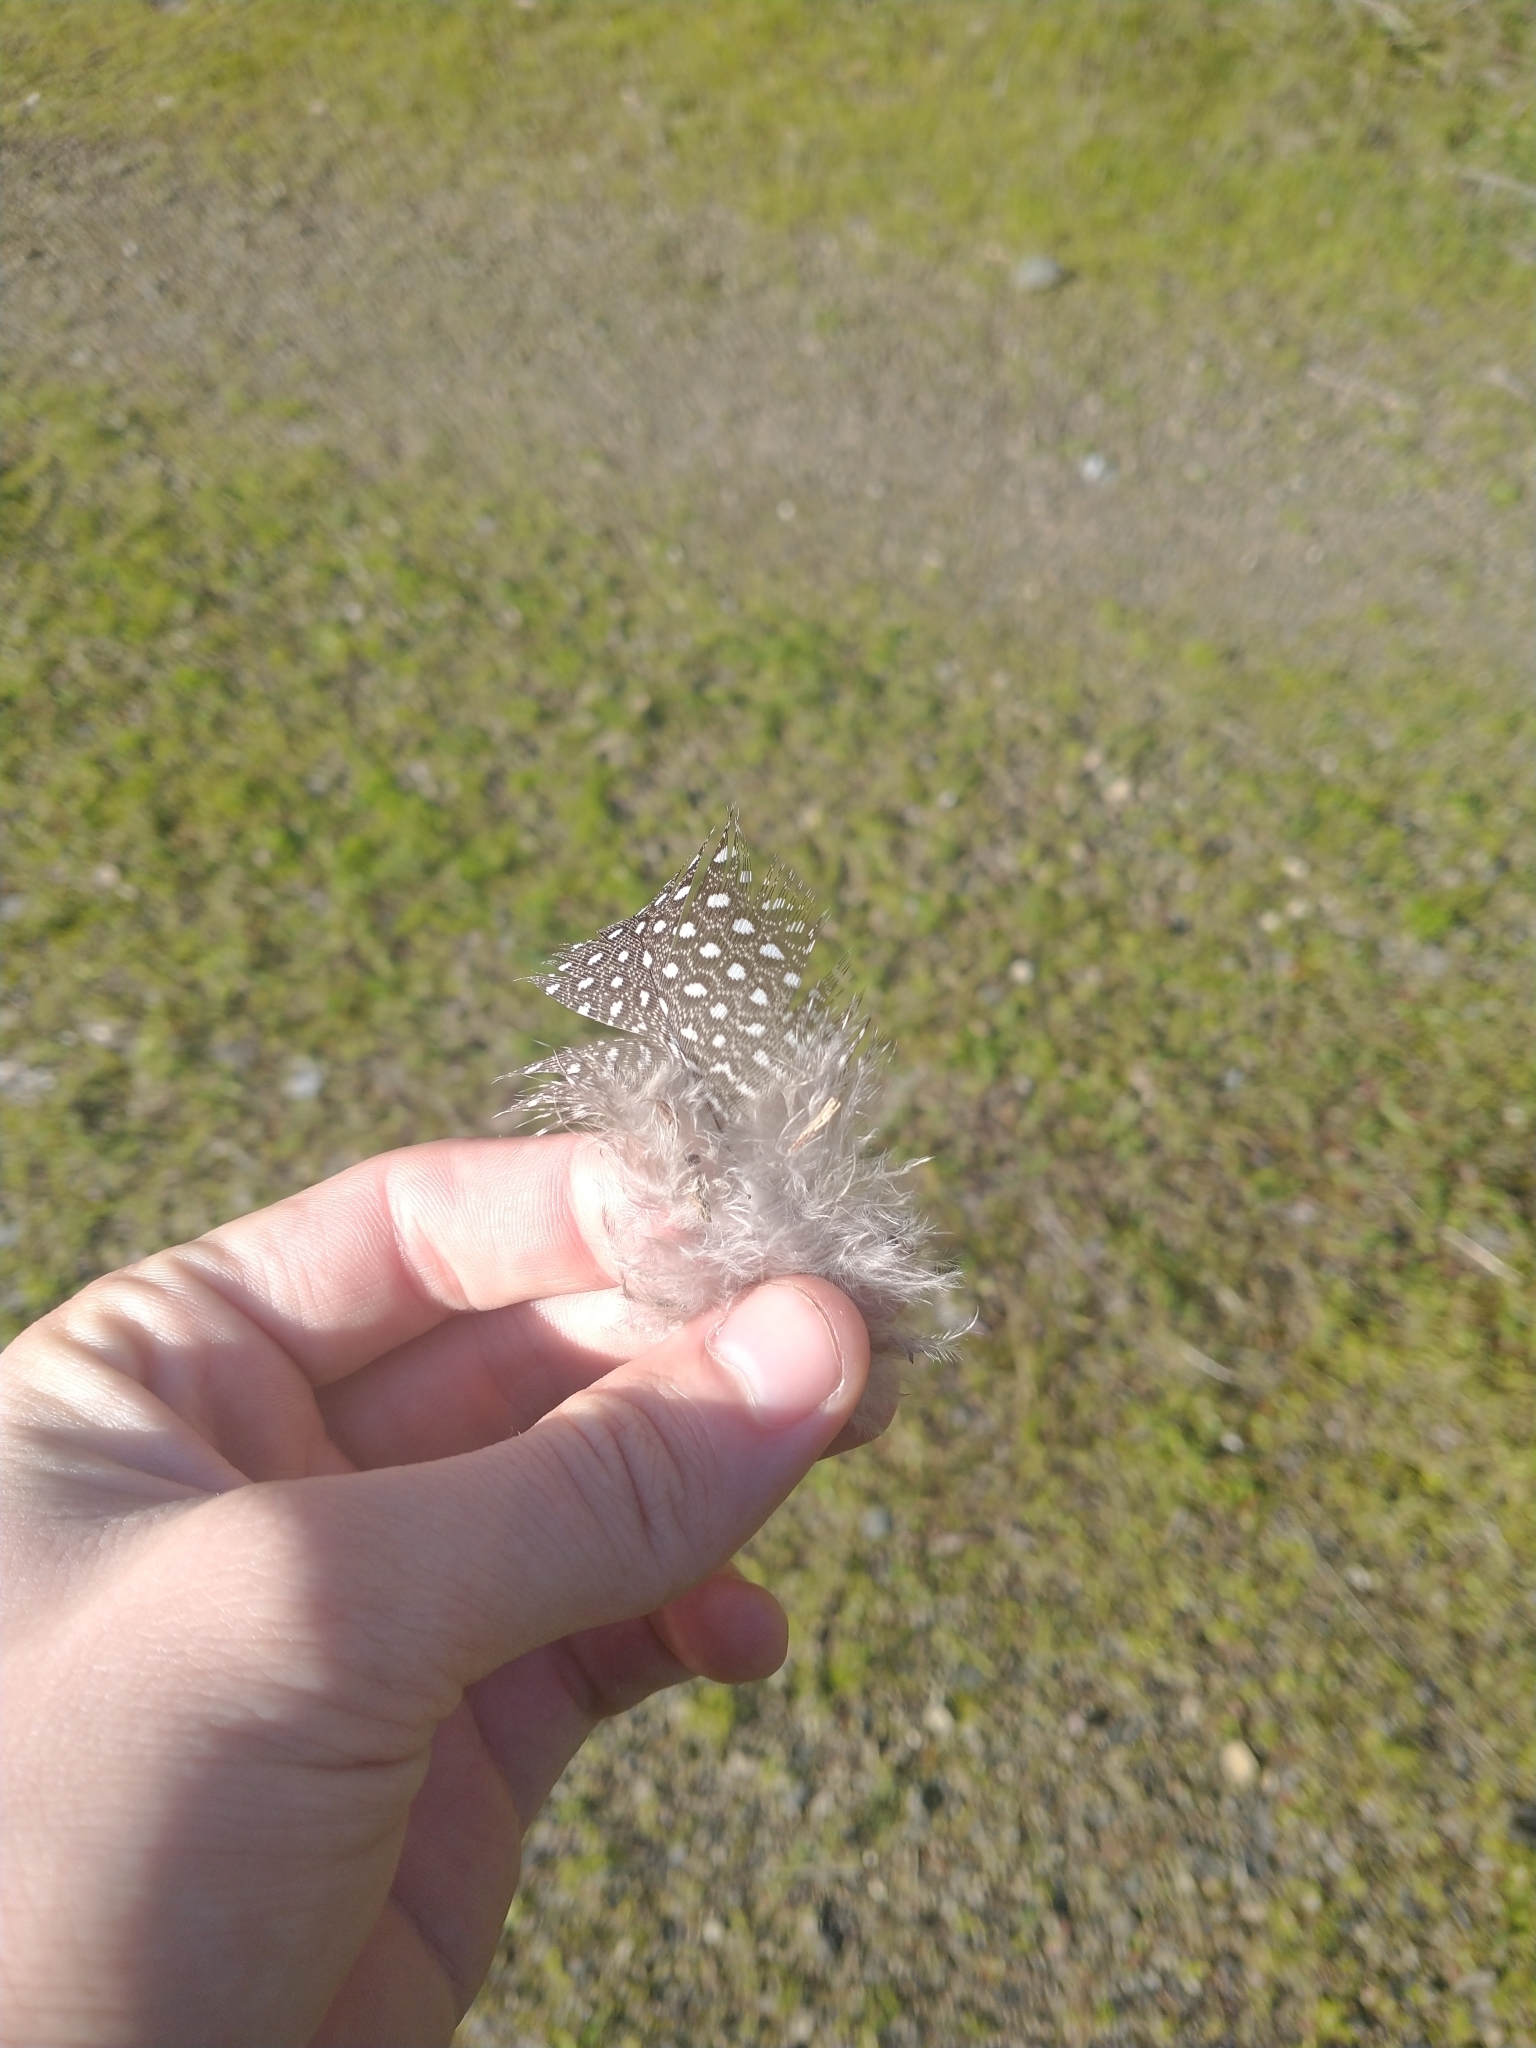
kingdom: Animalia
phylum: Chordata
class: Aves
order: Galliformes
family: Numididae
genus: Numida
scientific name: Numida meleagris
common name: Helmeted guineafowl
